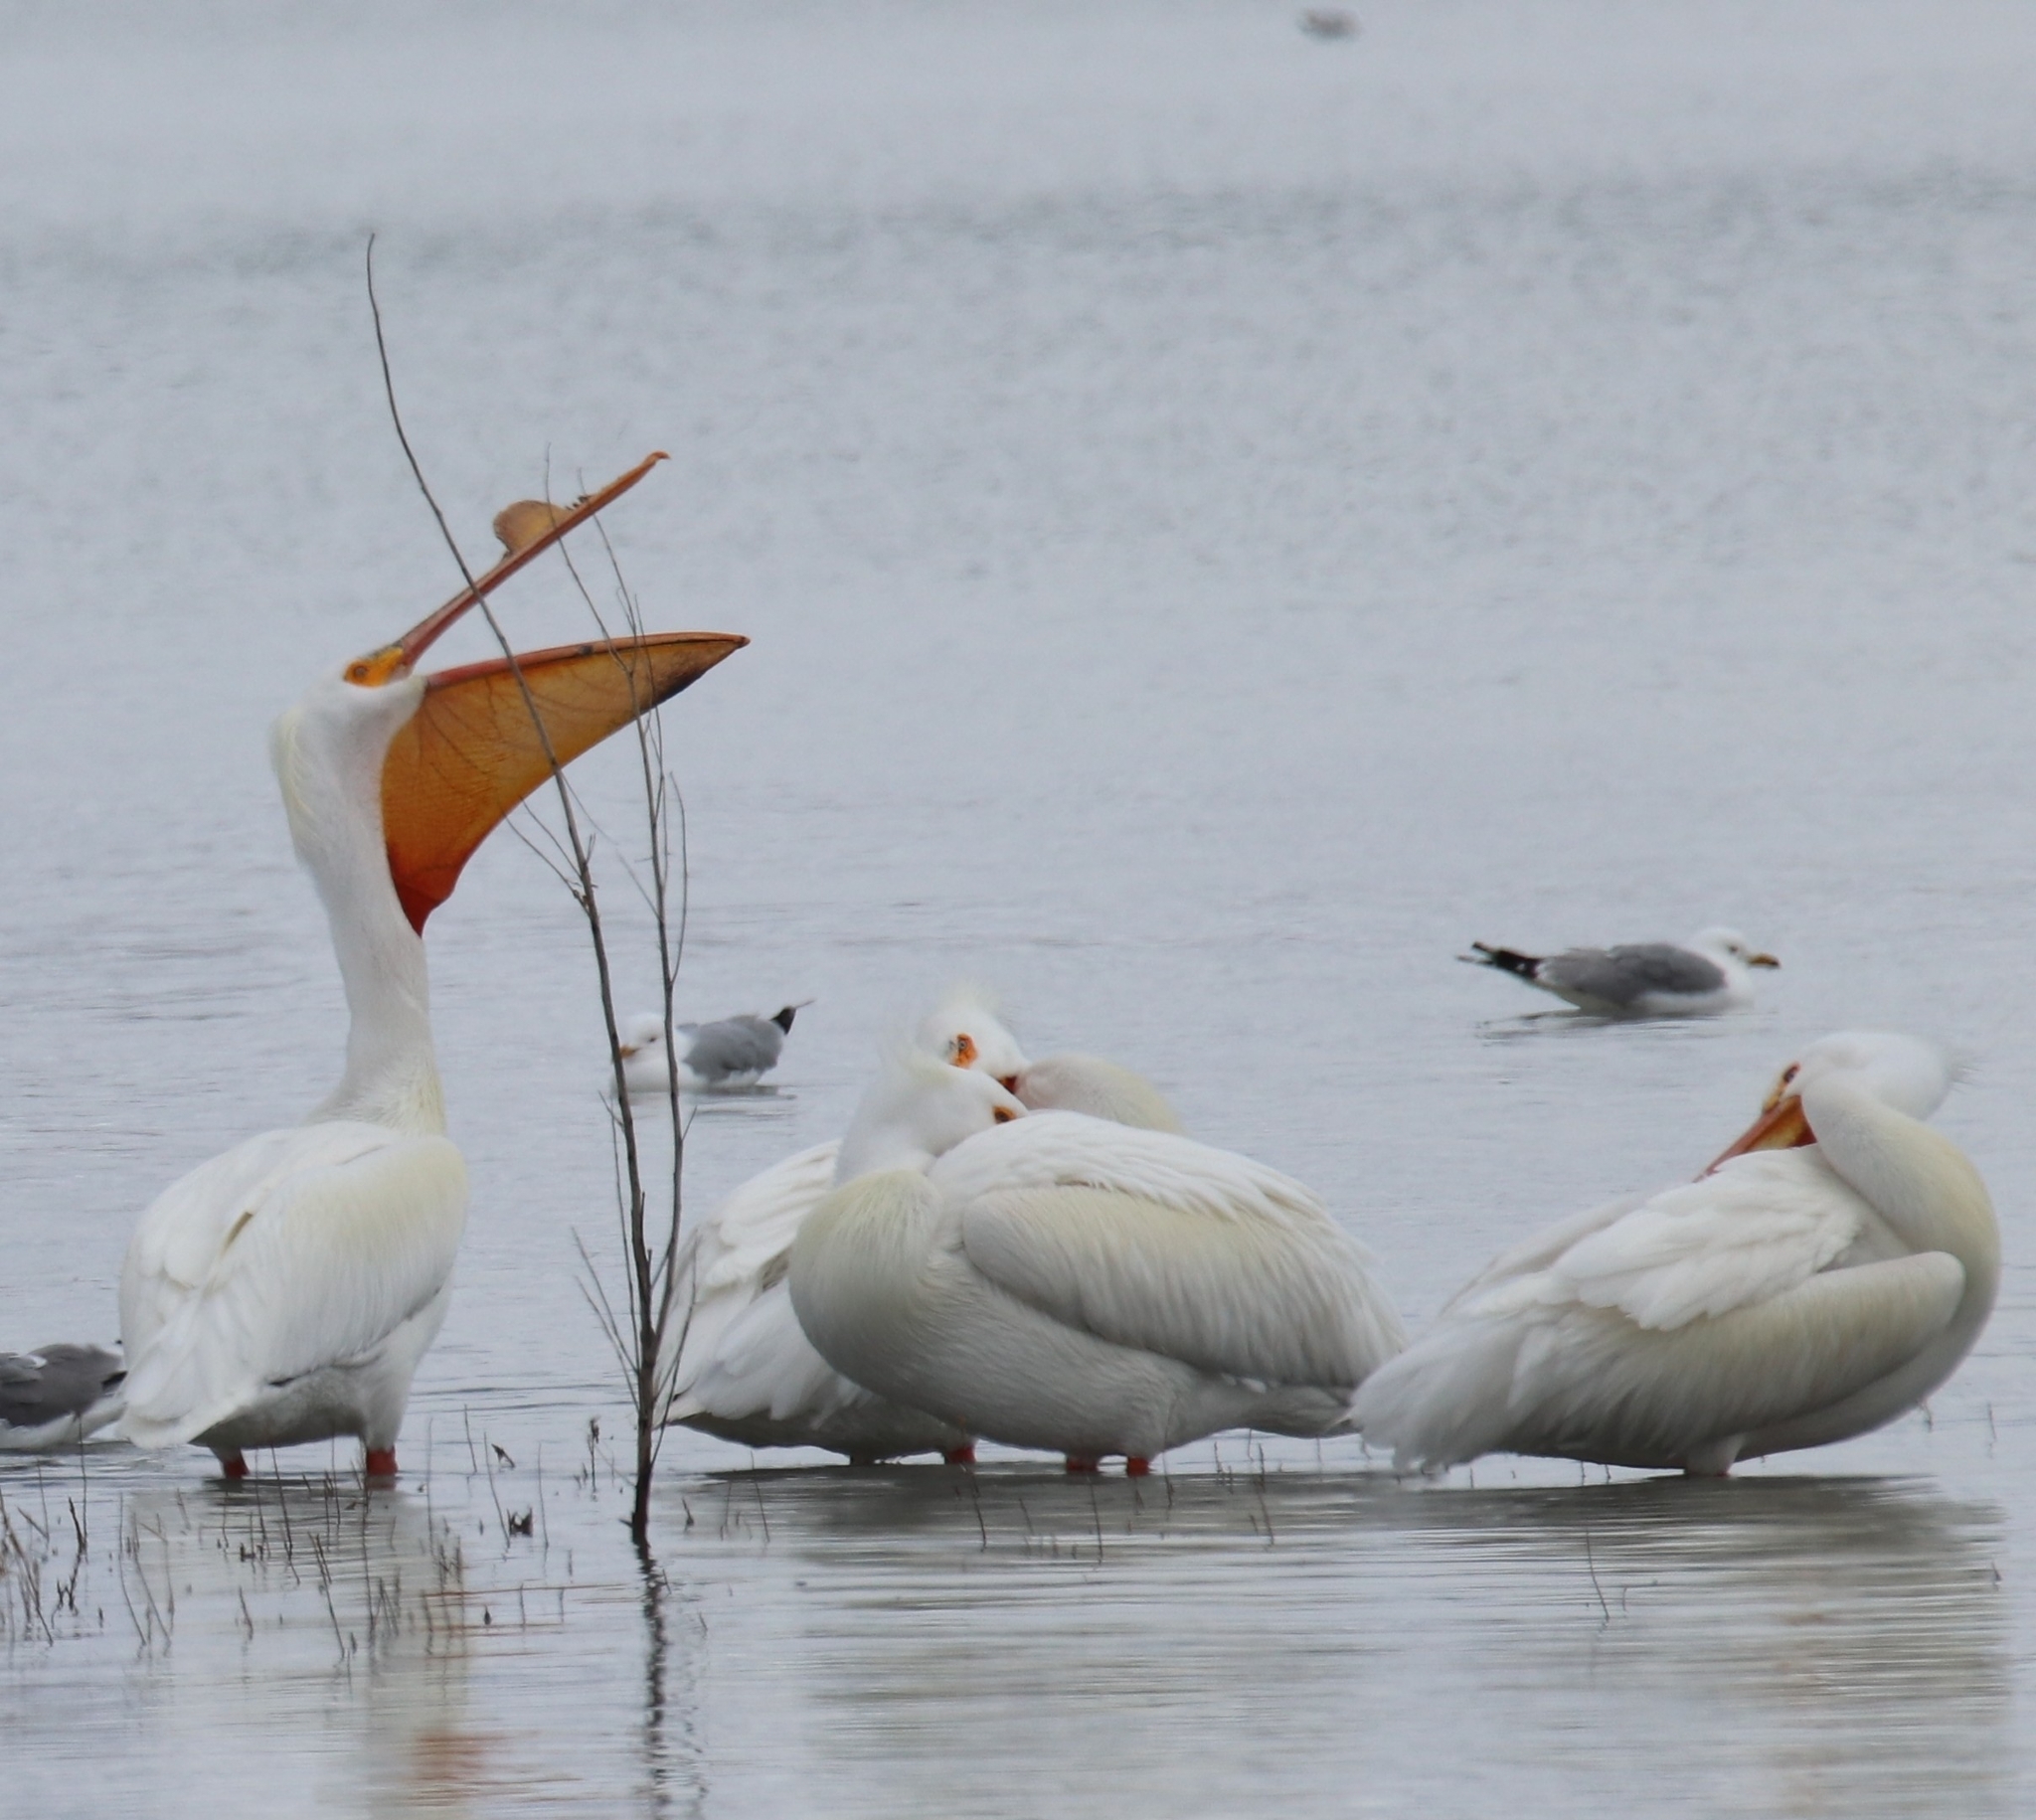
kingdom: Animalia
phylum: Chordata
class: Aves
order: Pelecaniformes
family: Pelecanidae
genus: Pelecanus
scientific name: Pelecanus erythrorhynchos
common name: American white pelican
